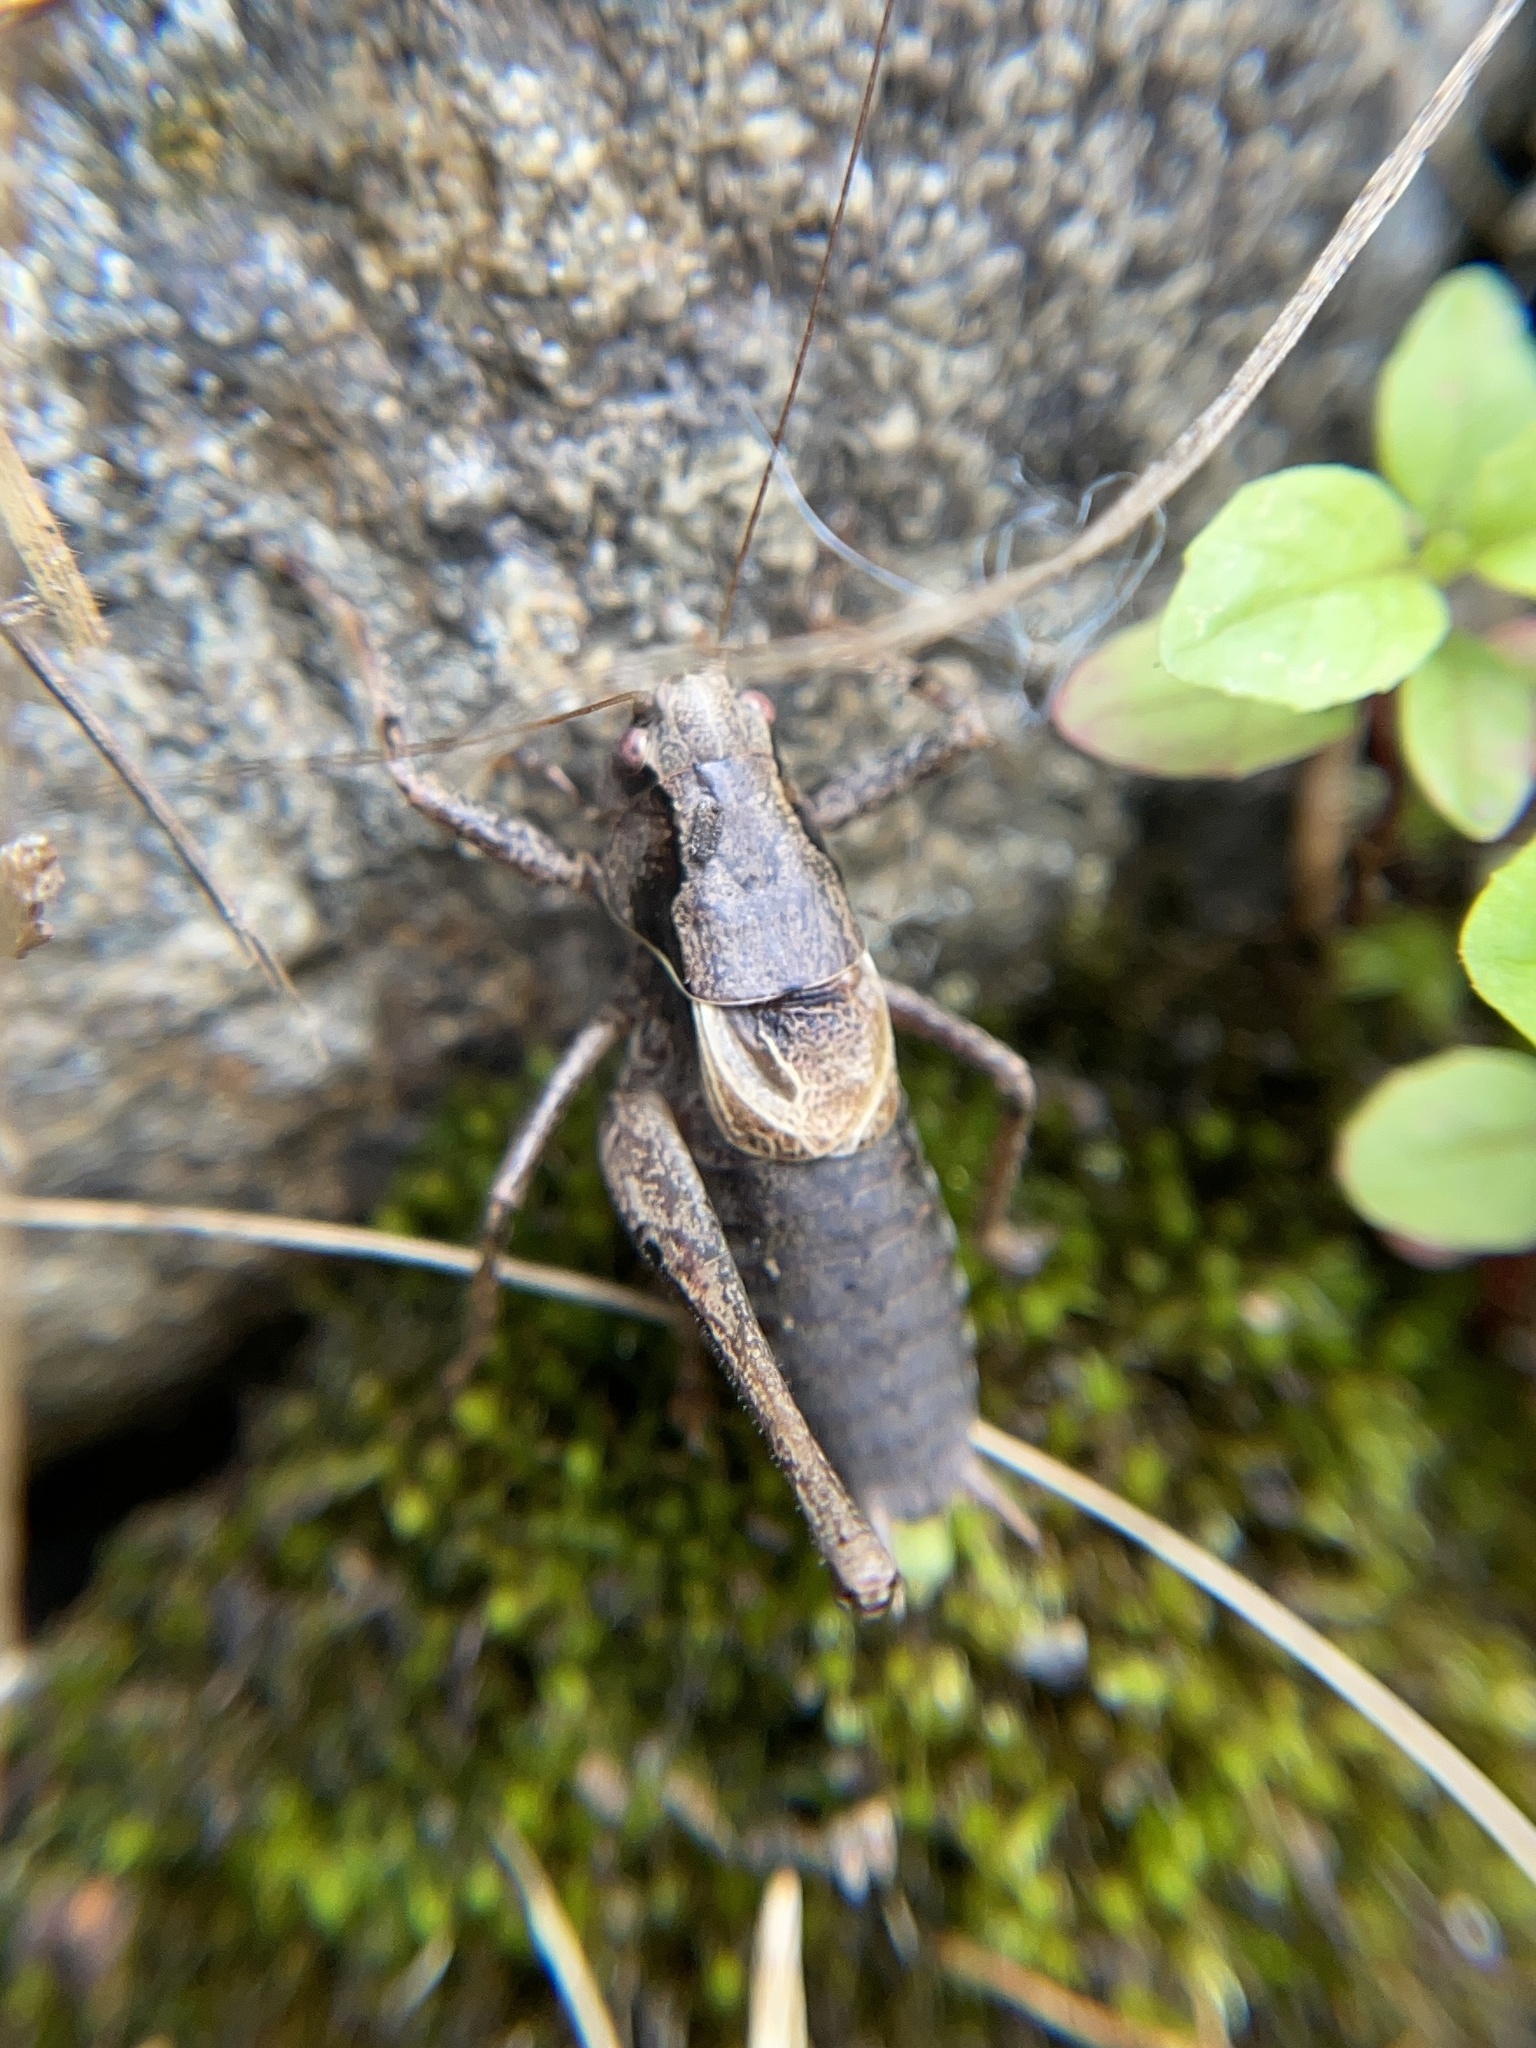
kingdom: Animalia
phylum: Arthropoda
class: Insecta
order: Orthoptera
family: Tettigoniidae
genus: Pholidoptera
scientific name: Pholidoptera griseoaptera
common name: Dark bush-cricket
